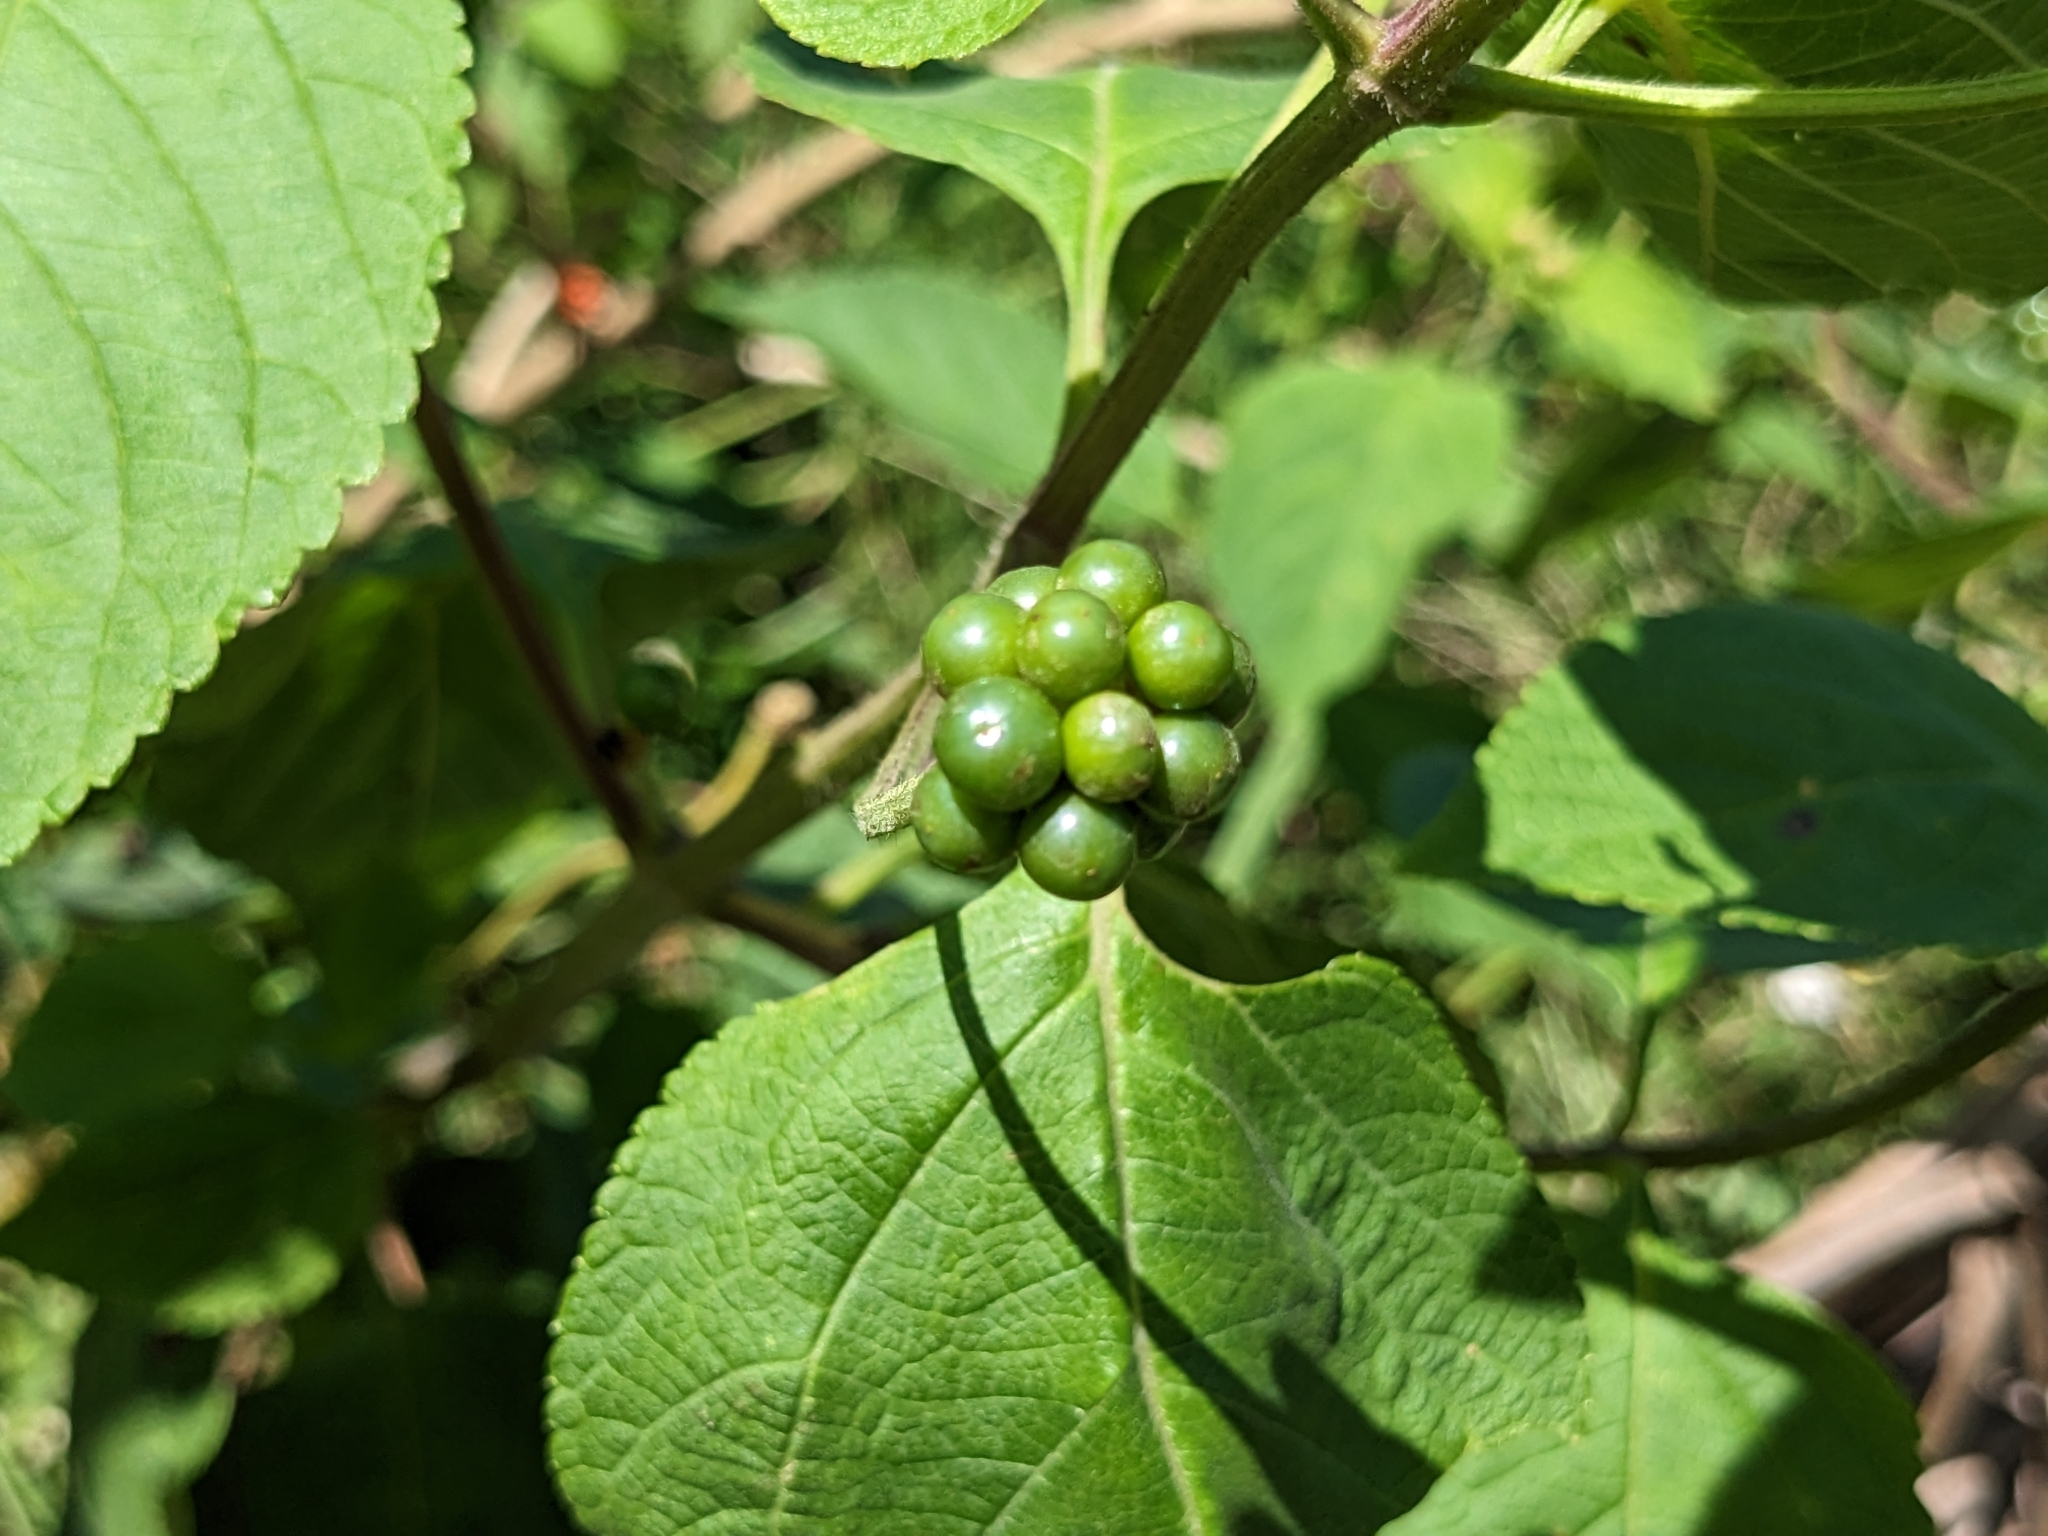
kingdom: Plantae
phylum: Tracheophyta
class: Magnoliopsida
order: Lamiales
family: Verbenaceae
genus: Lantana
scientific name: Lantana camara
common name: Lantana
